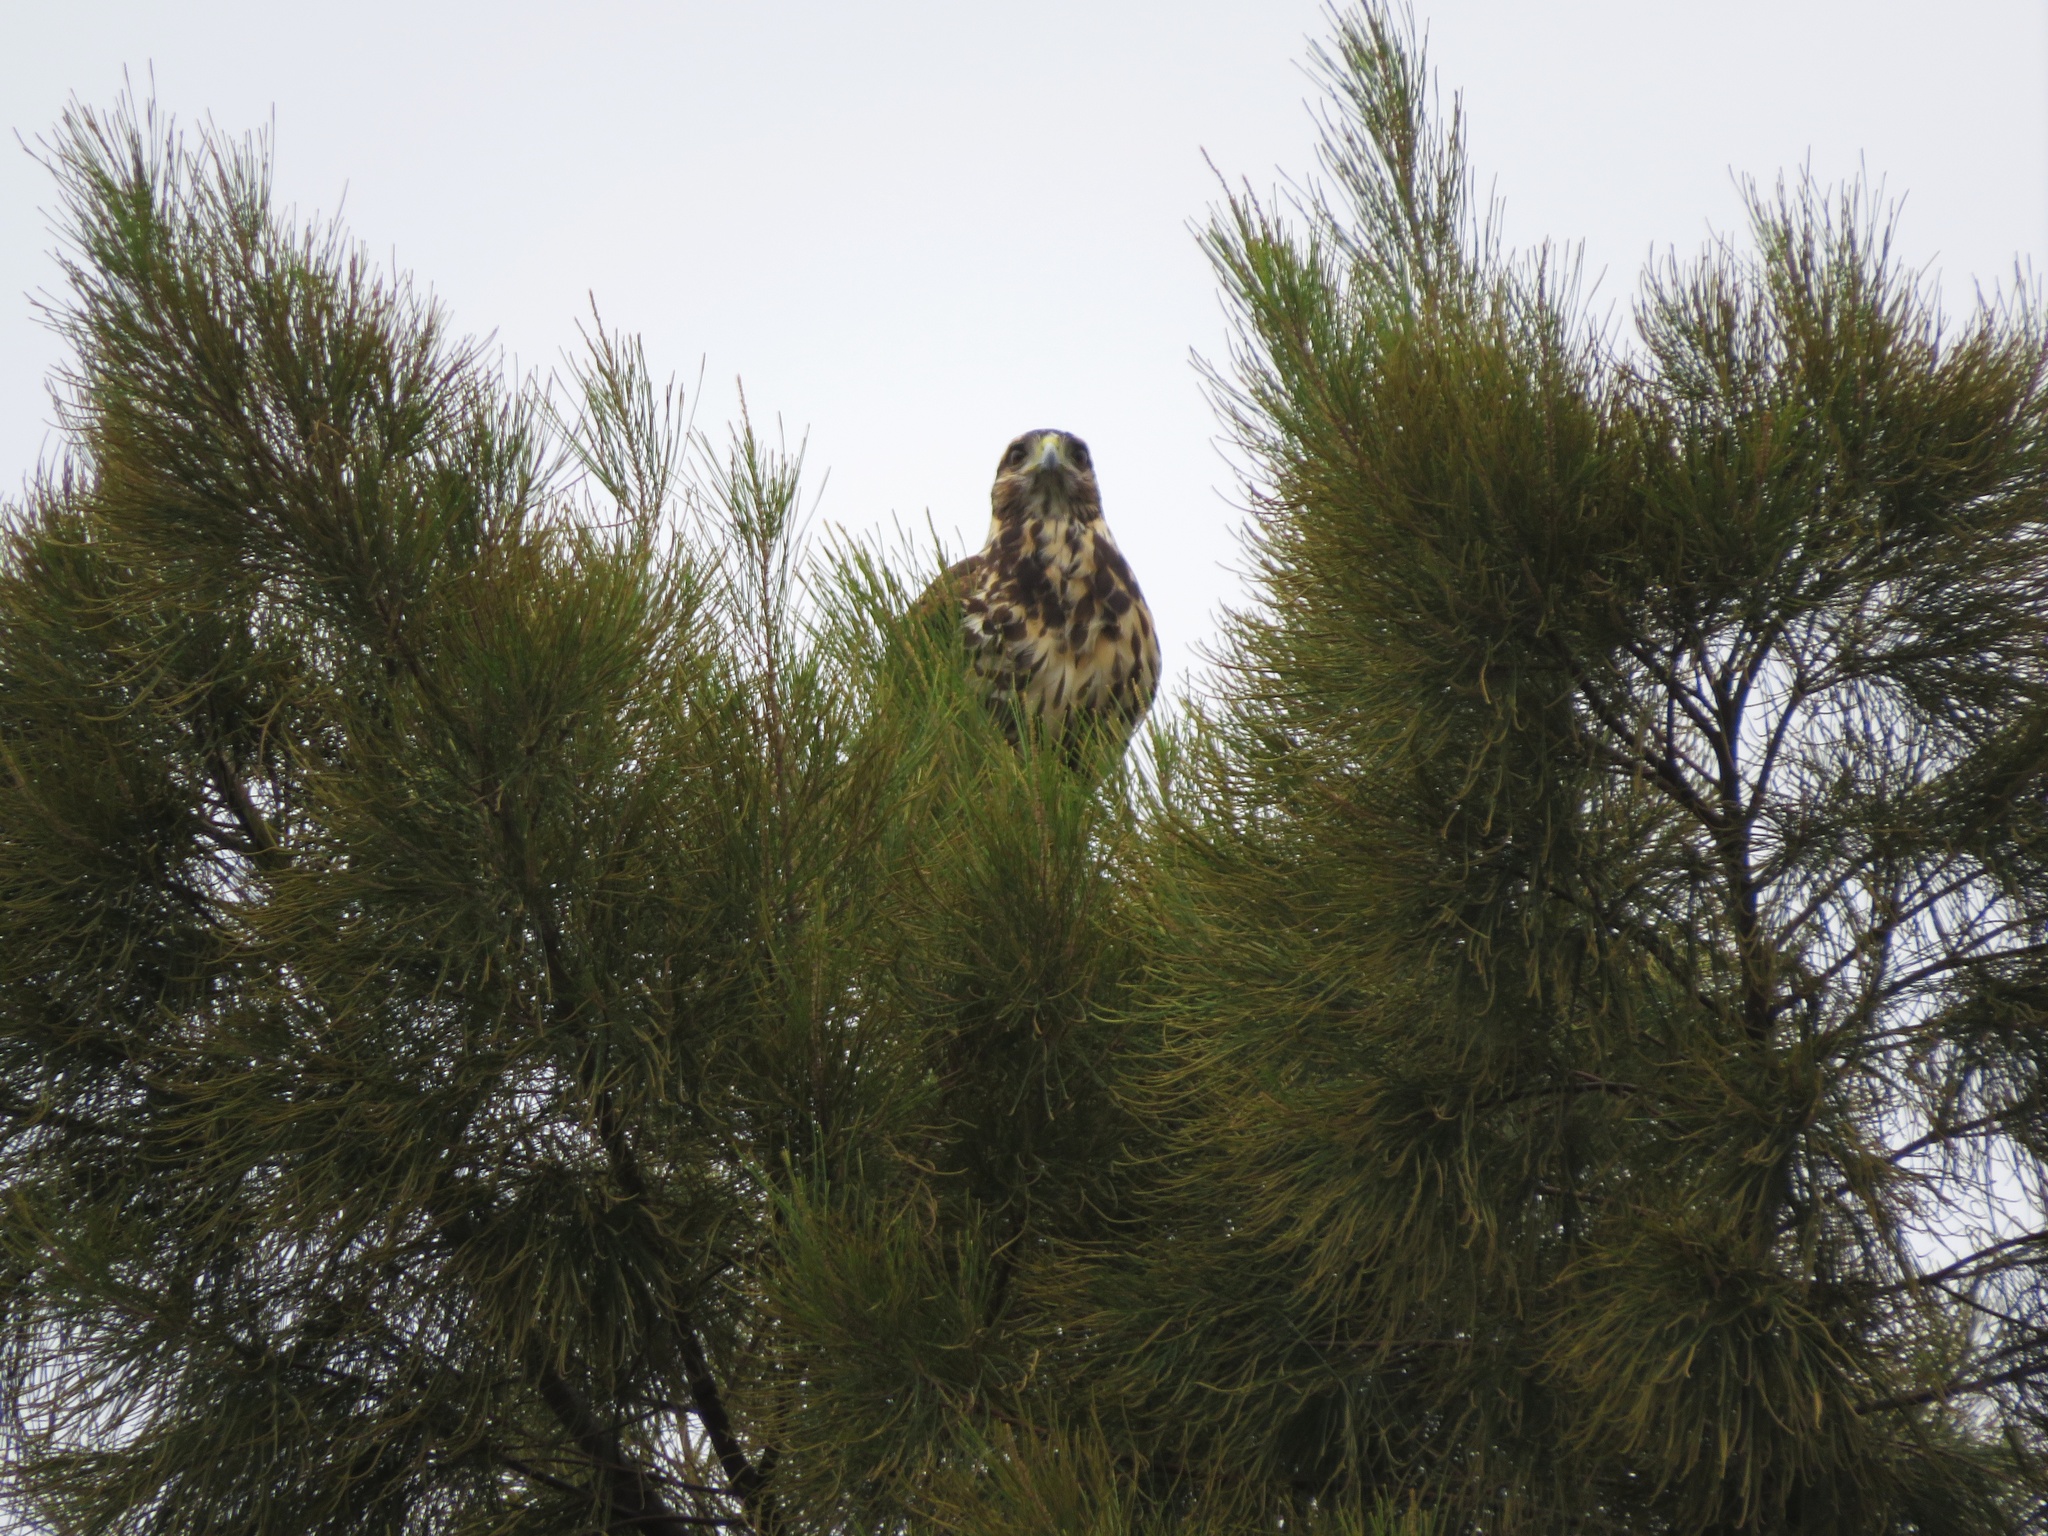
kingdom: Animalia
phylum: Chordata
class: Aves
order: Accipitriformes
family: Accipitridae
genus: Parabuteo
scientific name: Parabuteo unicinctus
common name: Harris's hawk
